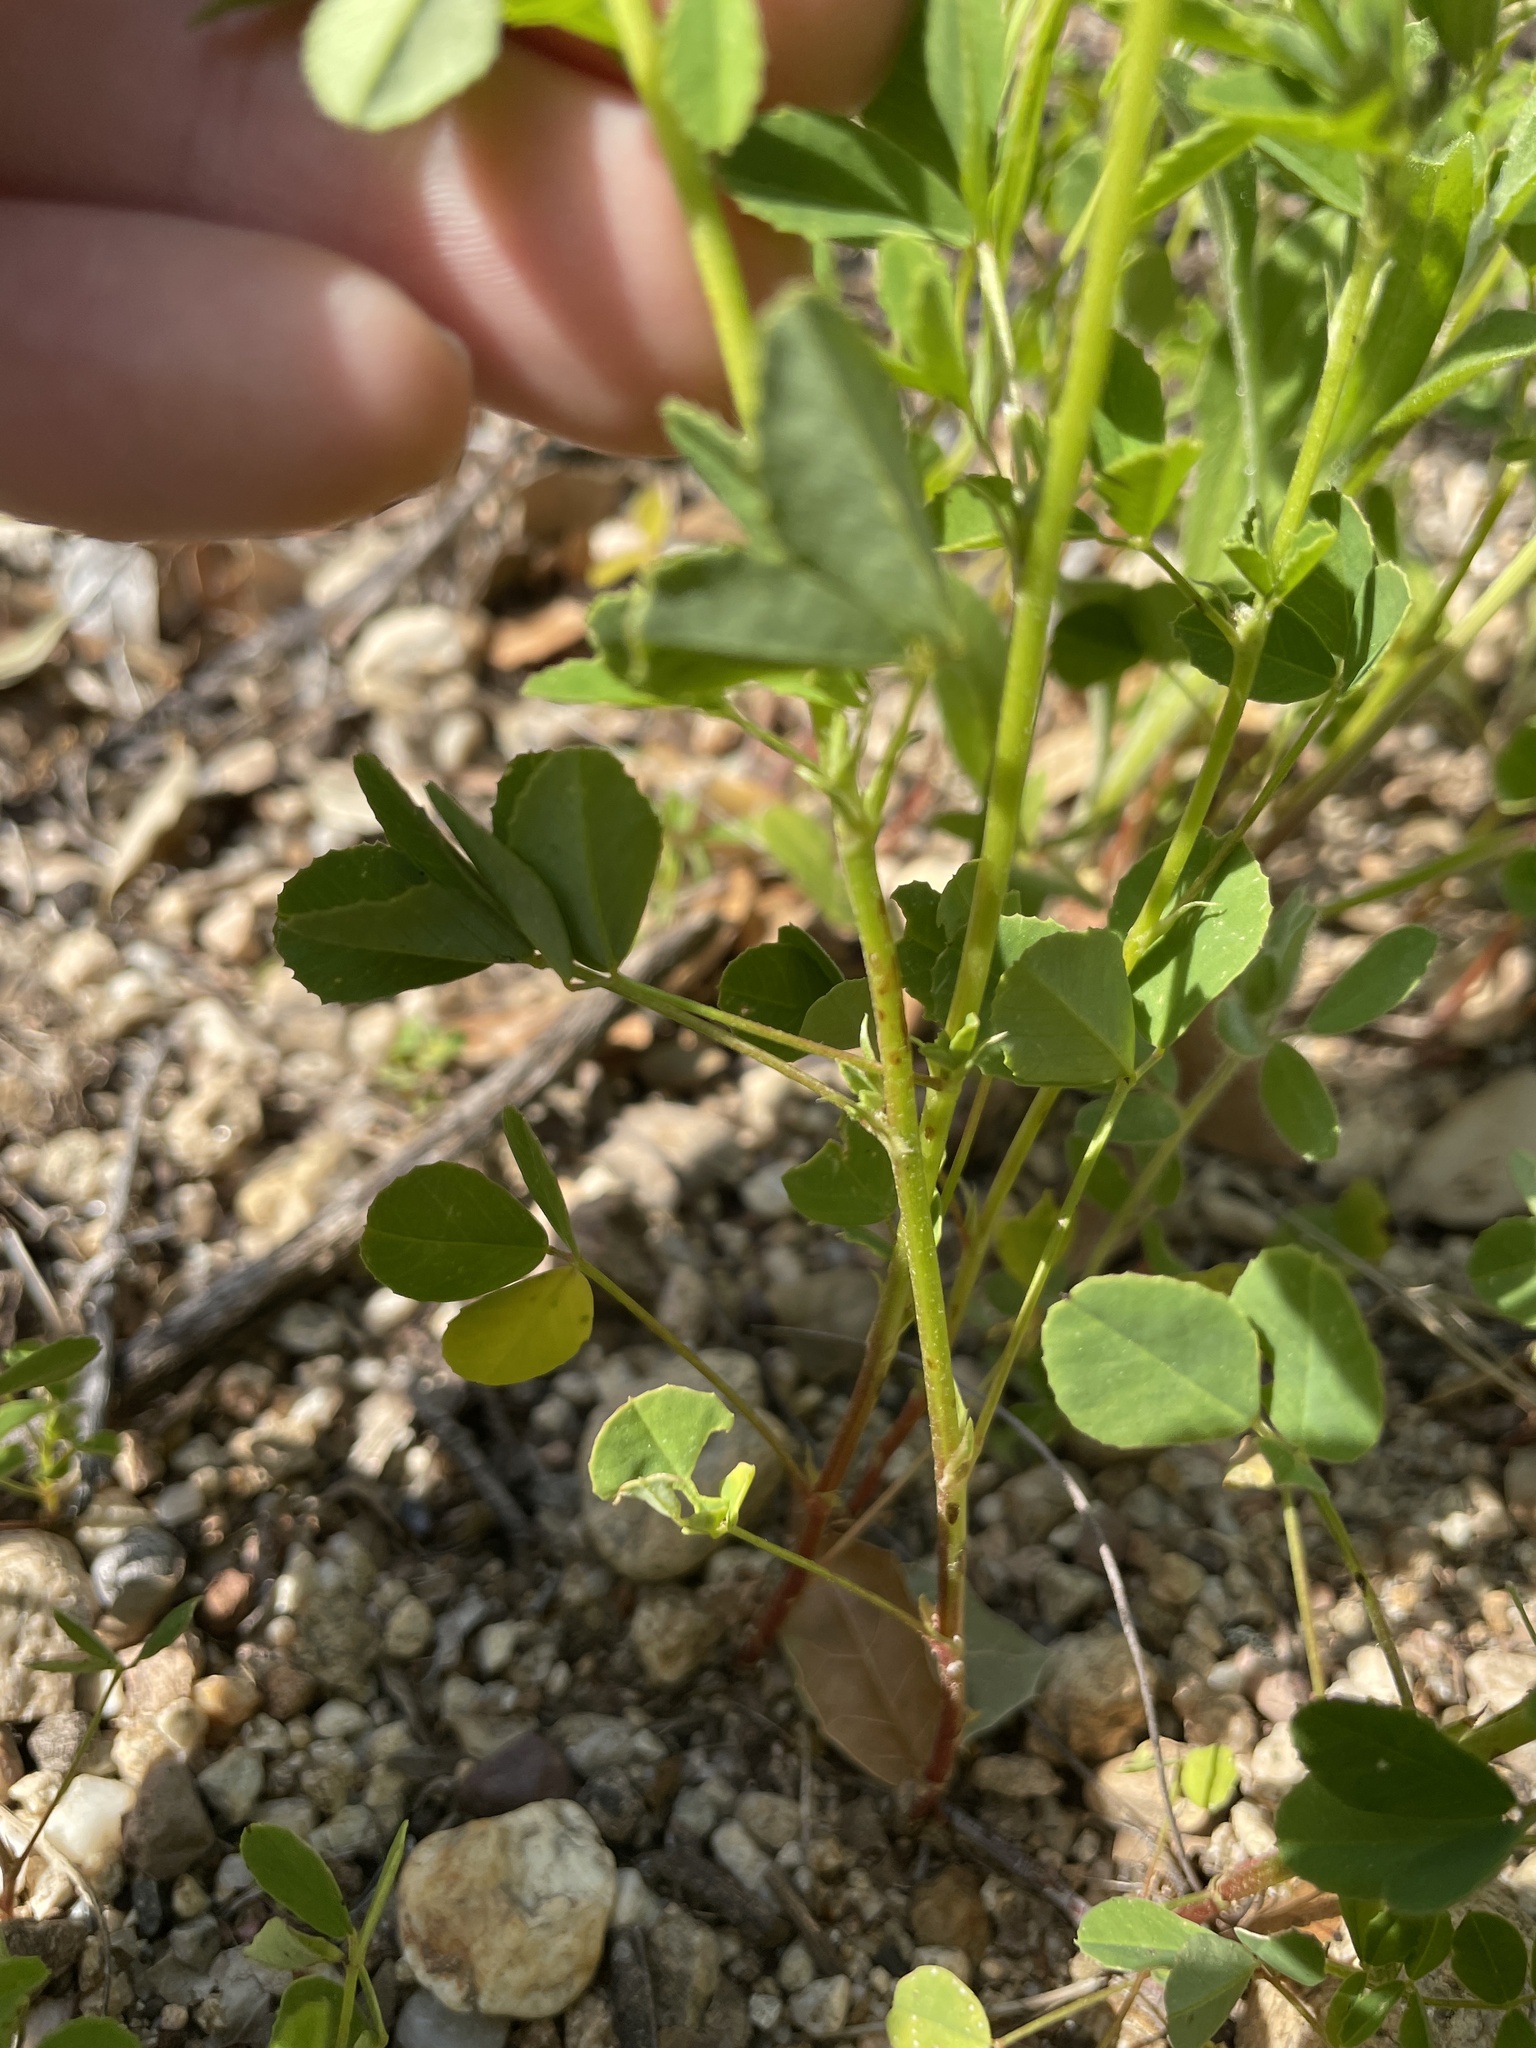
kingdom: Plantae
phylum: Tracheophyta
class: Magnoliopsida
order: Fabales
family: Fabaceae
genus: Melilotus
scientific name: Melilotus indicus
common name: Small melilot
